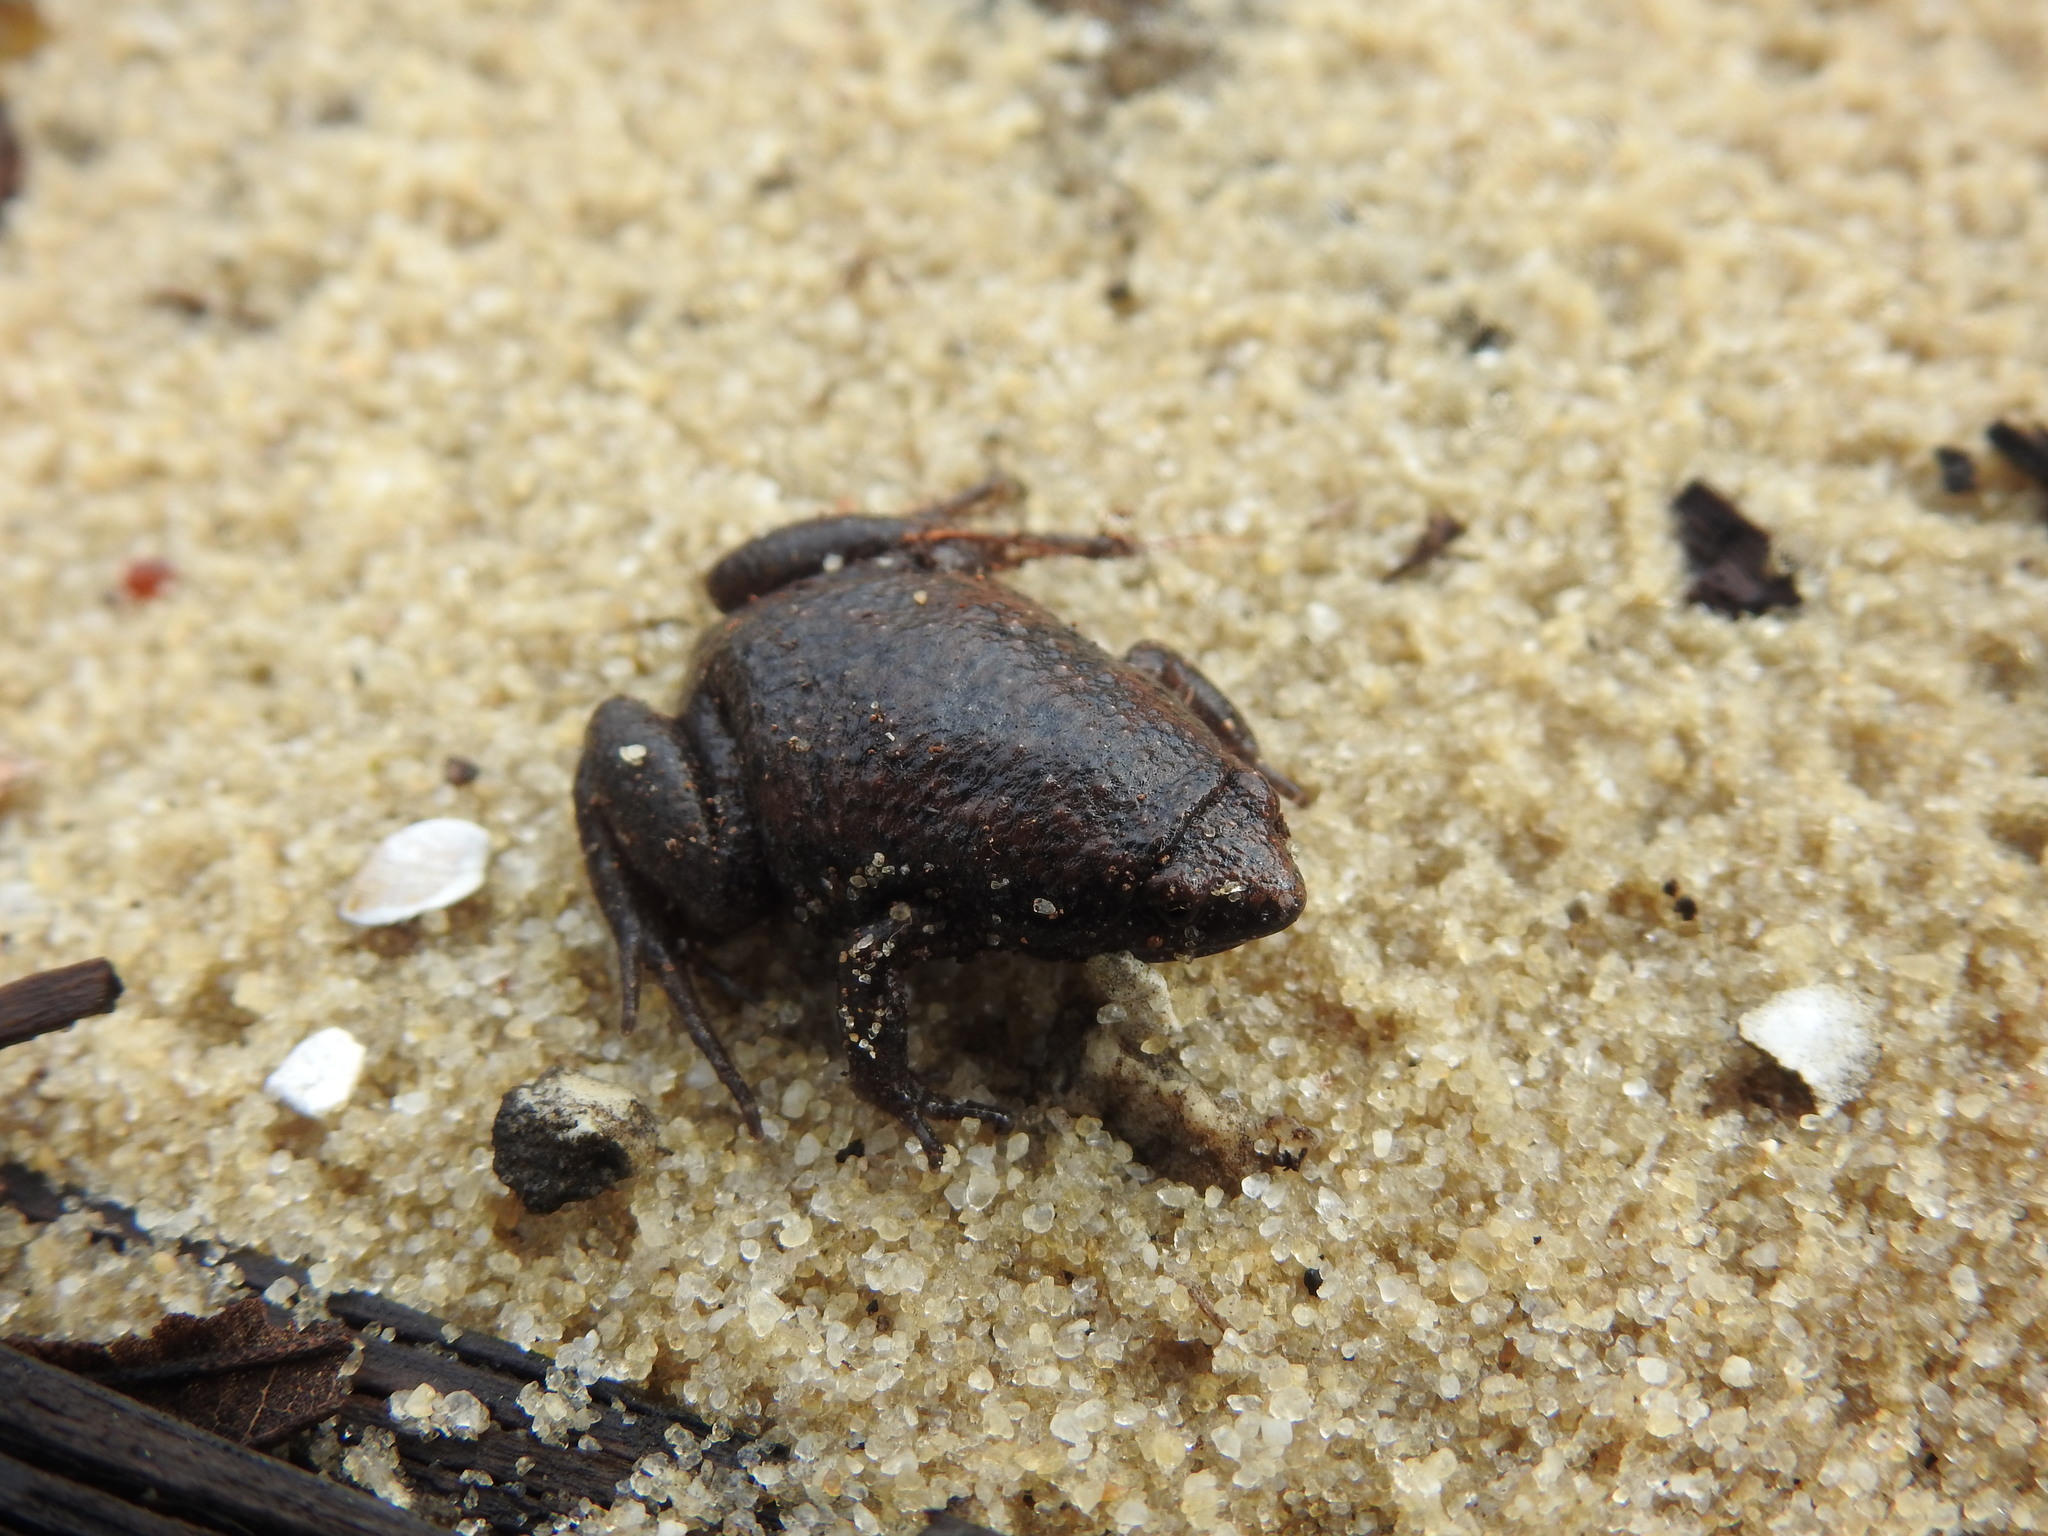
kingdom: Animalia
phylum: Chordata
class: Amphibia
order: Anura
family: Microhylidae
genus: Gastrophryne
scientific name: Gastrophryne carolinensis
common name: Eastern narrowmouth toad
